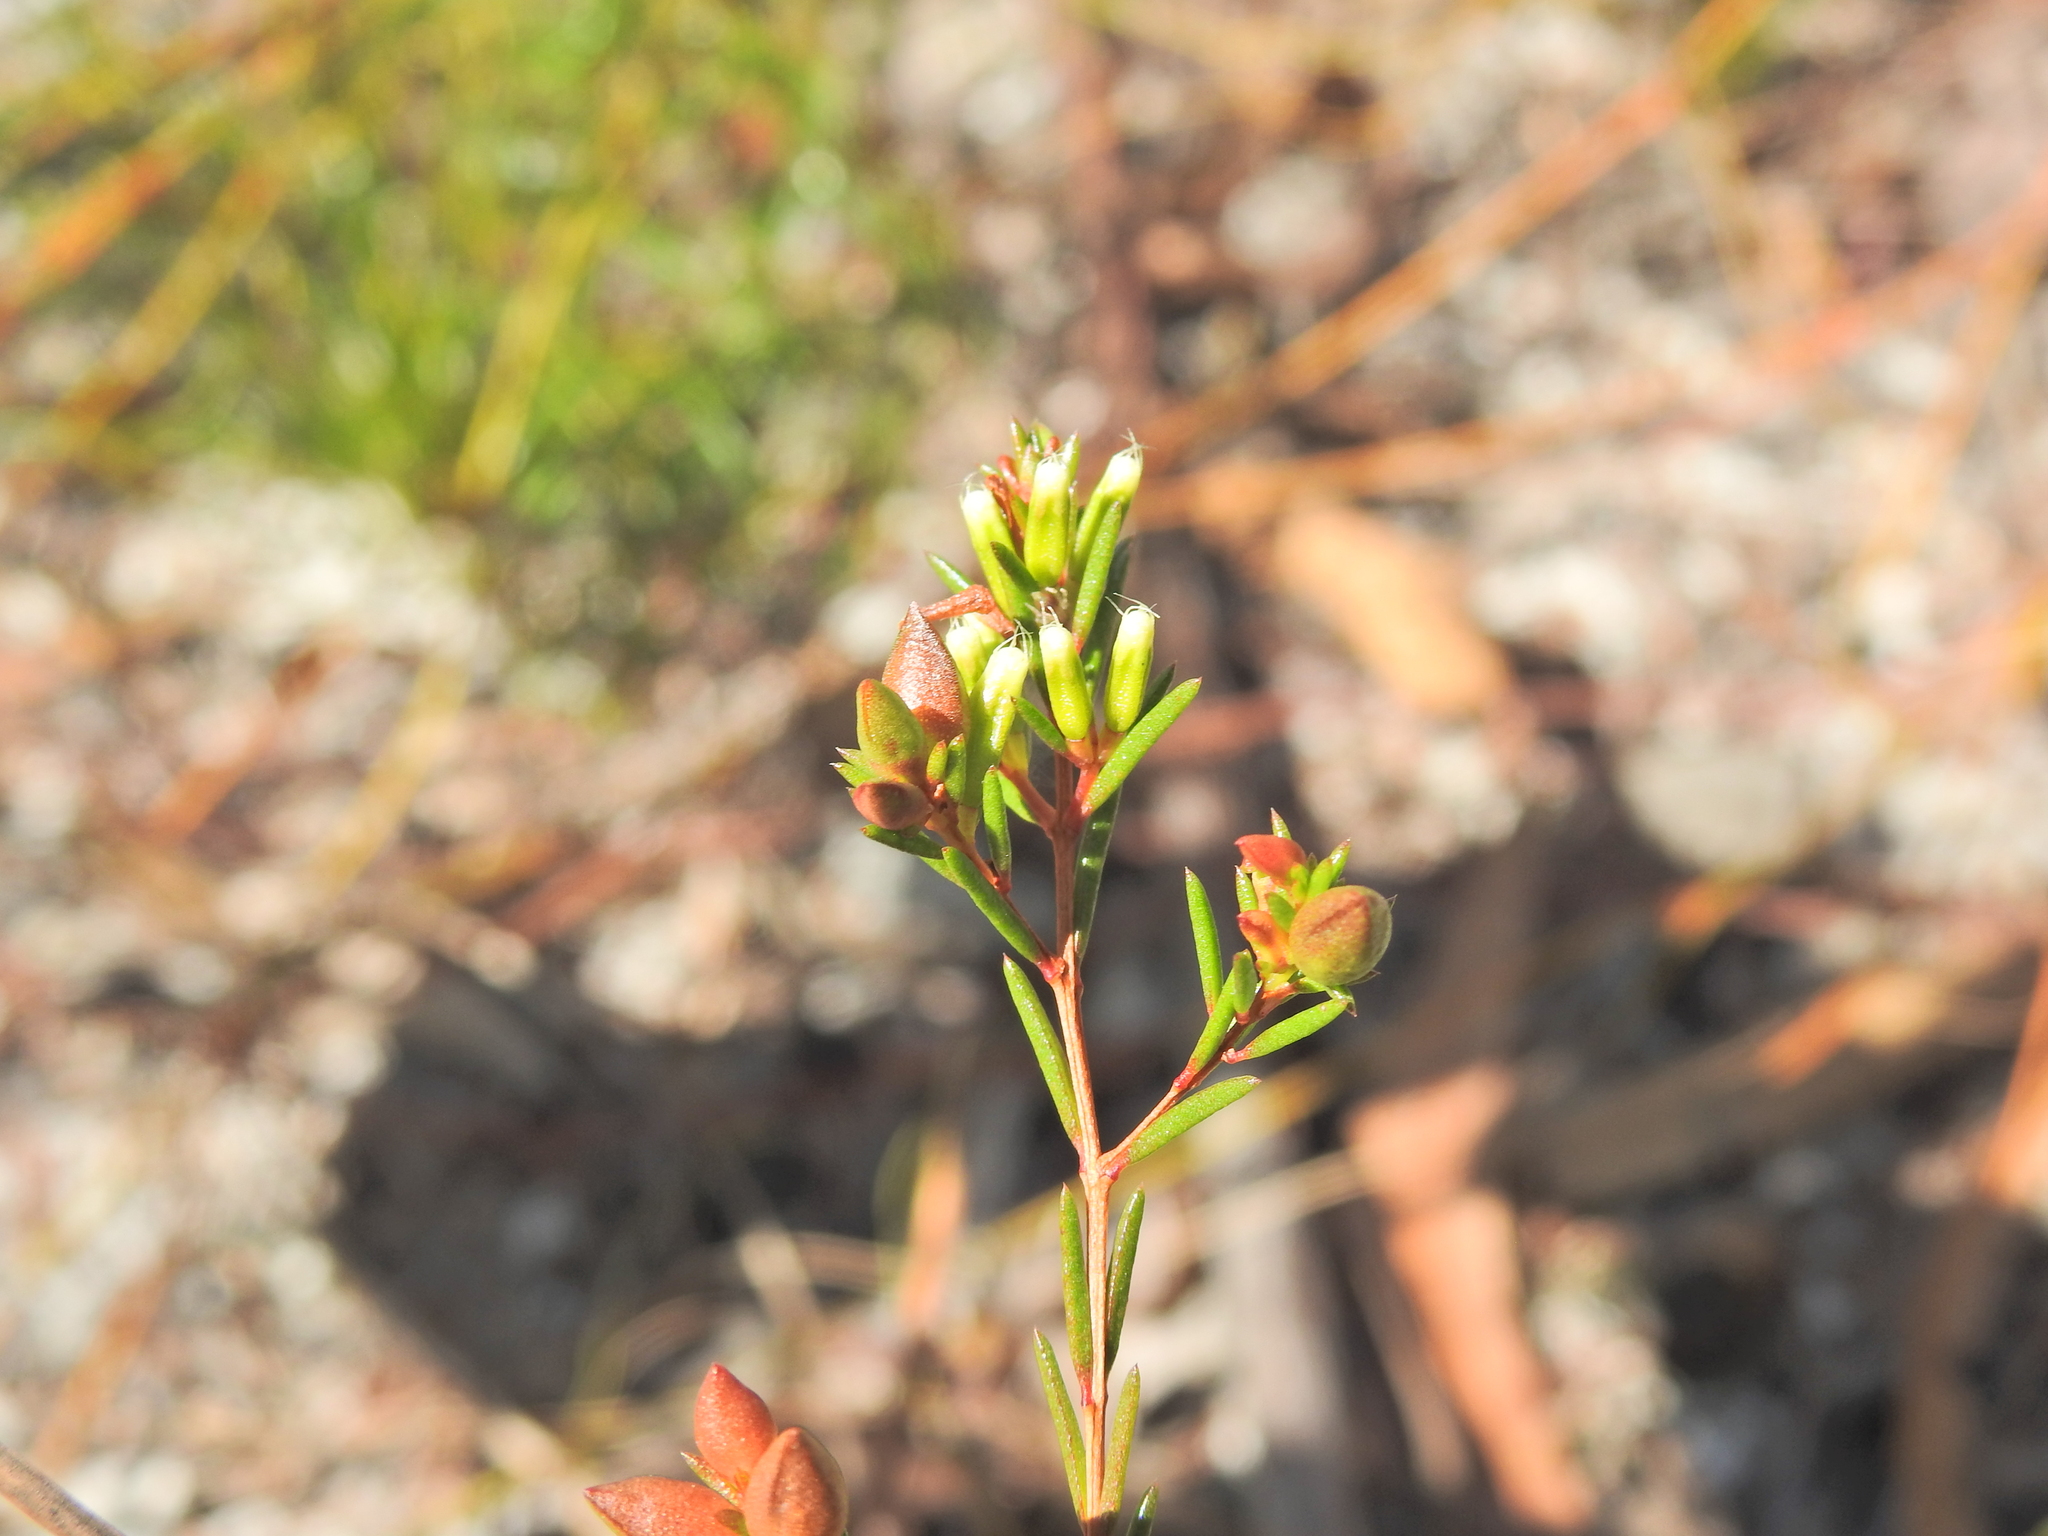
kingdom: Plantae
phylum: Tracheophyta
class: Magnoliopsida
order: Myrtales
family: Myrtaceae
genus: Homoranthus
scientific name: Homoranthus virgatus
